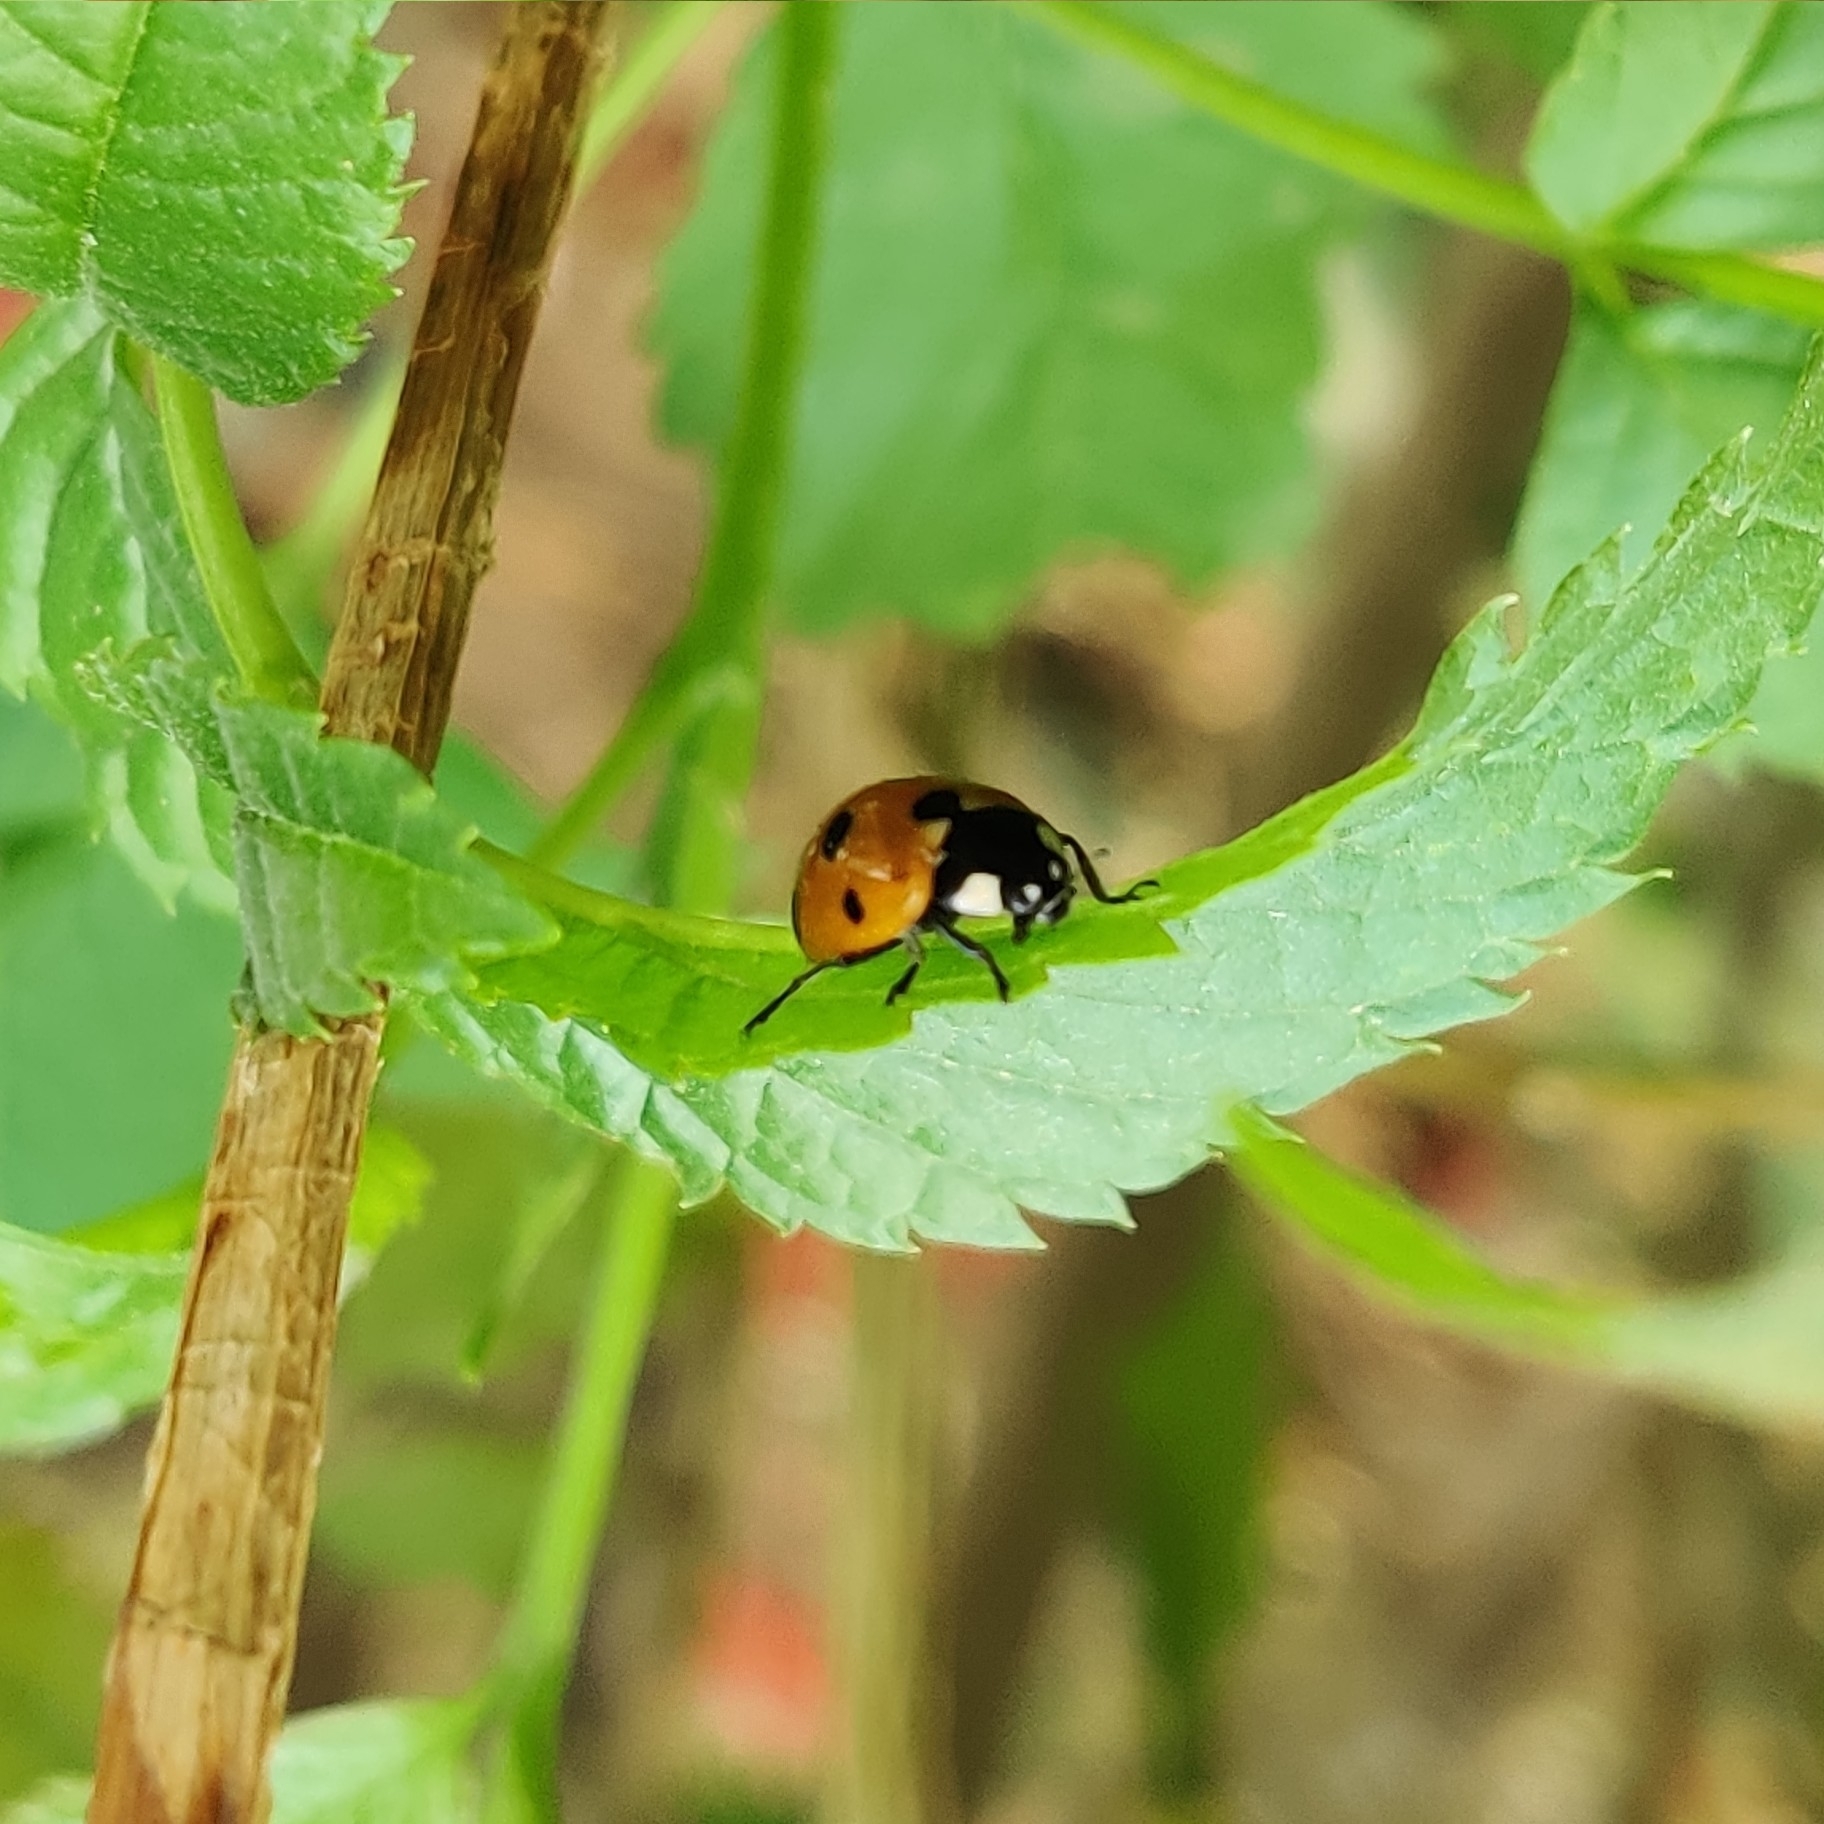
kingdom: Animalia
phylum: Arthropoda
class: Insecta
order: Coleoptera
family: Coccinellidae
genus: Coccinella
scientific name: Coccinella septempunctata
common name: Sevenspotted lady beetle
